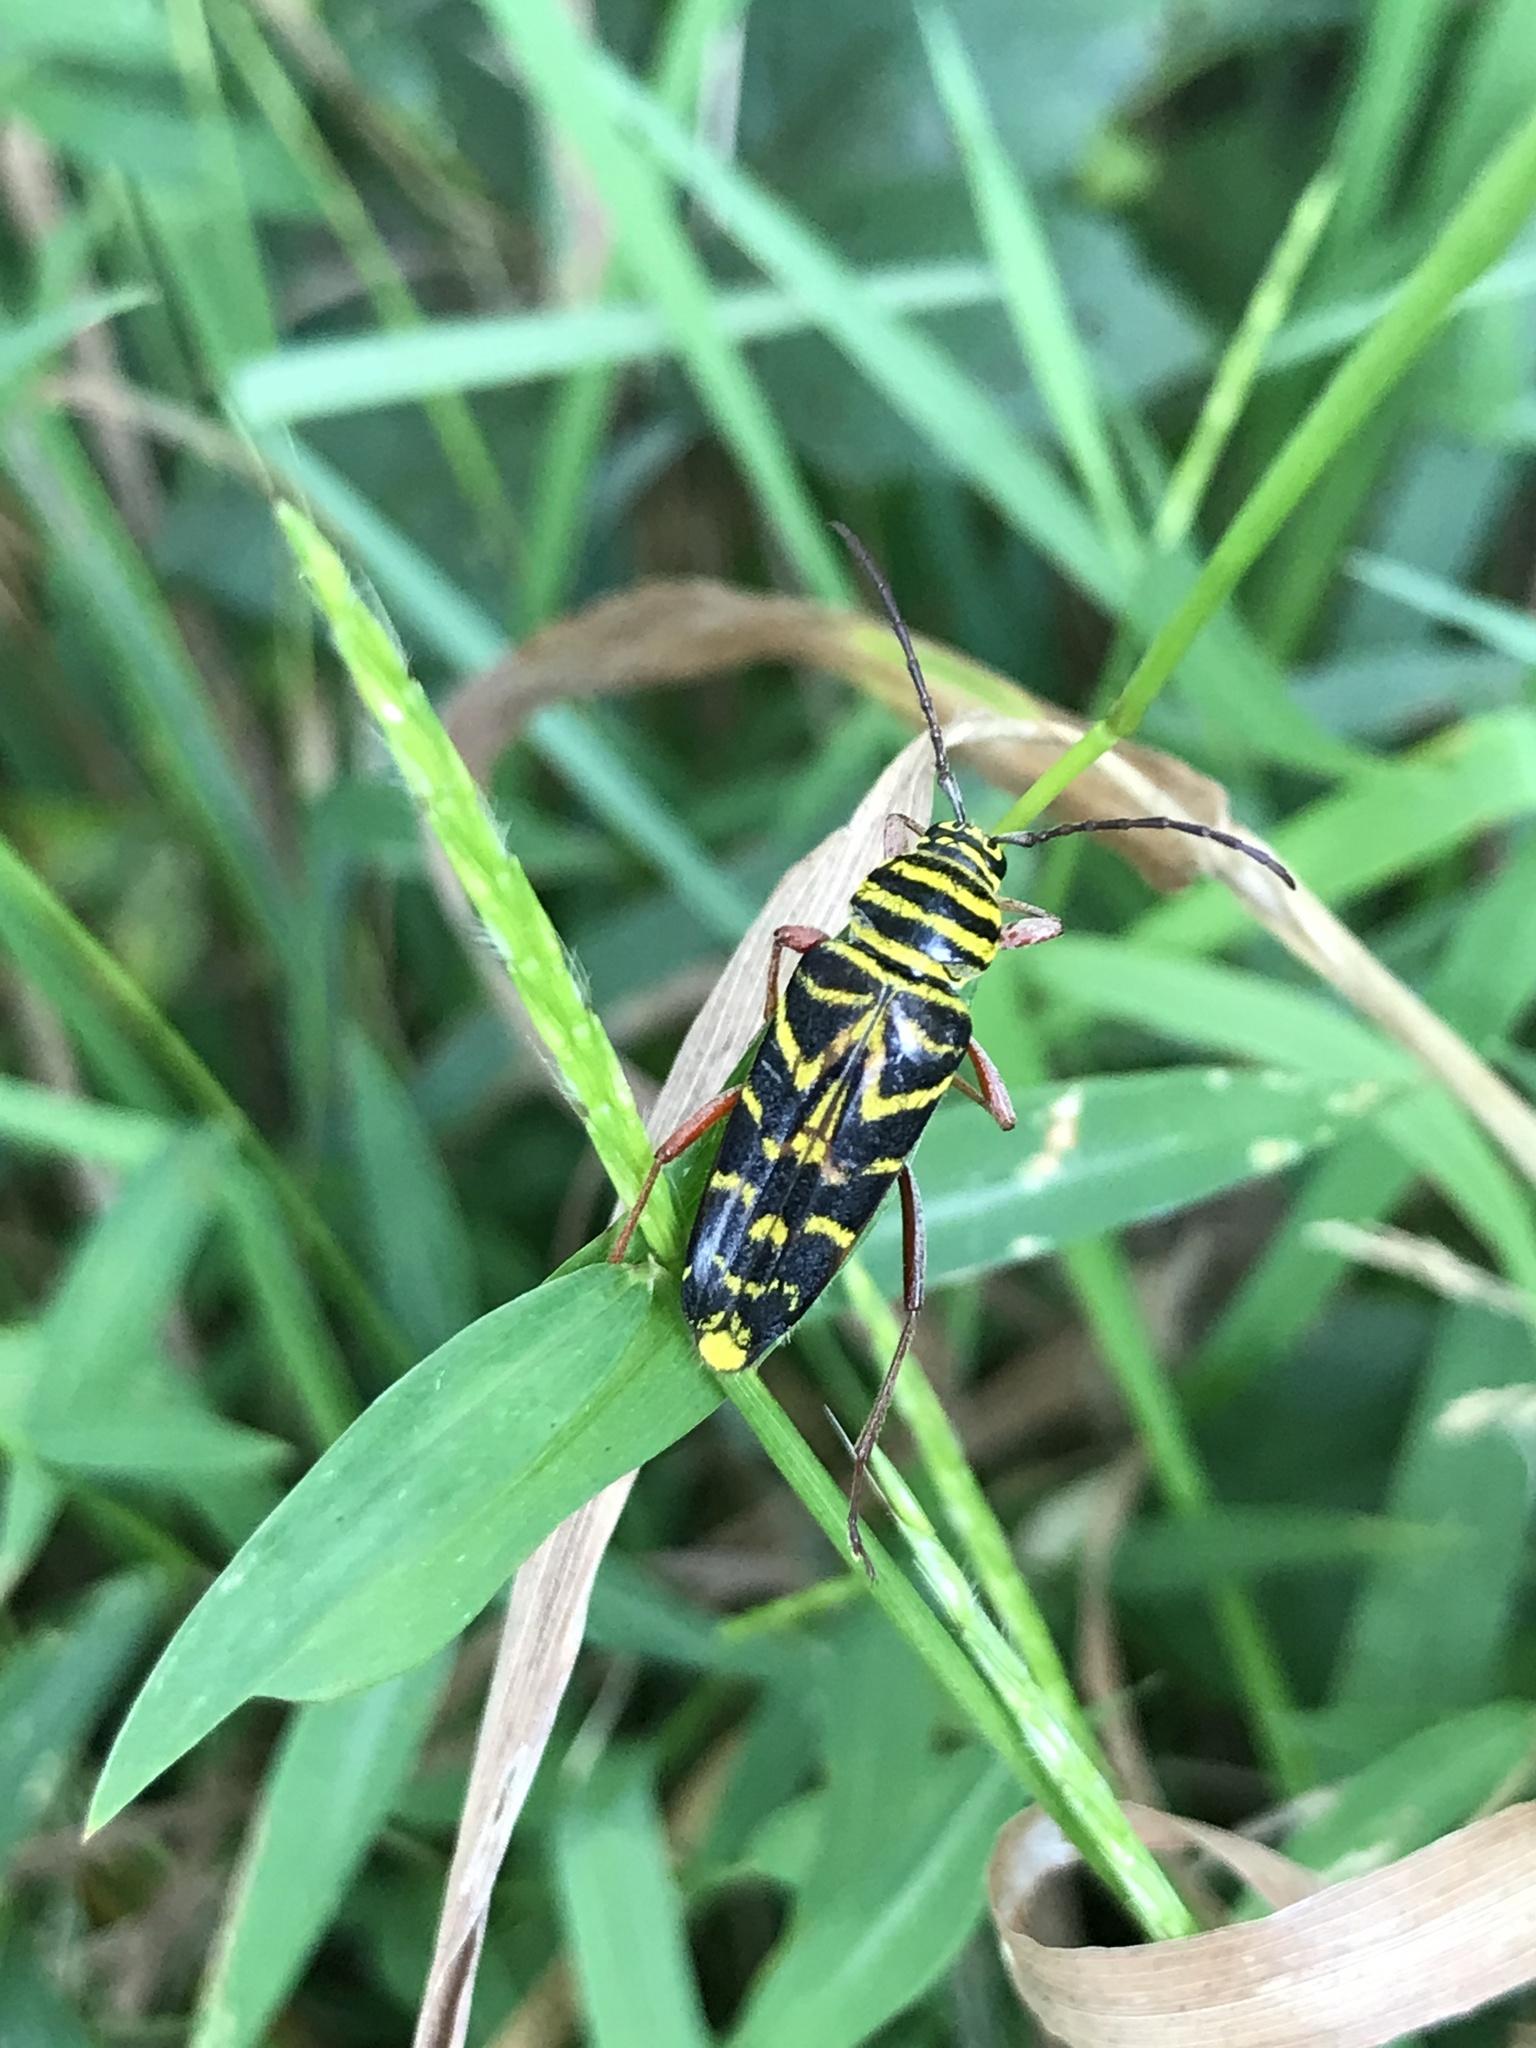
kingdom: Animalia
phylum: Arthropoda
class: Insecta
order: Coleoptera
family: Cerambycidae
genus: Megacyllene
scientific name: Megacyllene robiniae
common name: Locust borer
